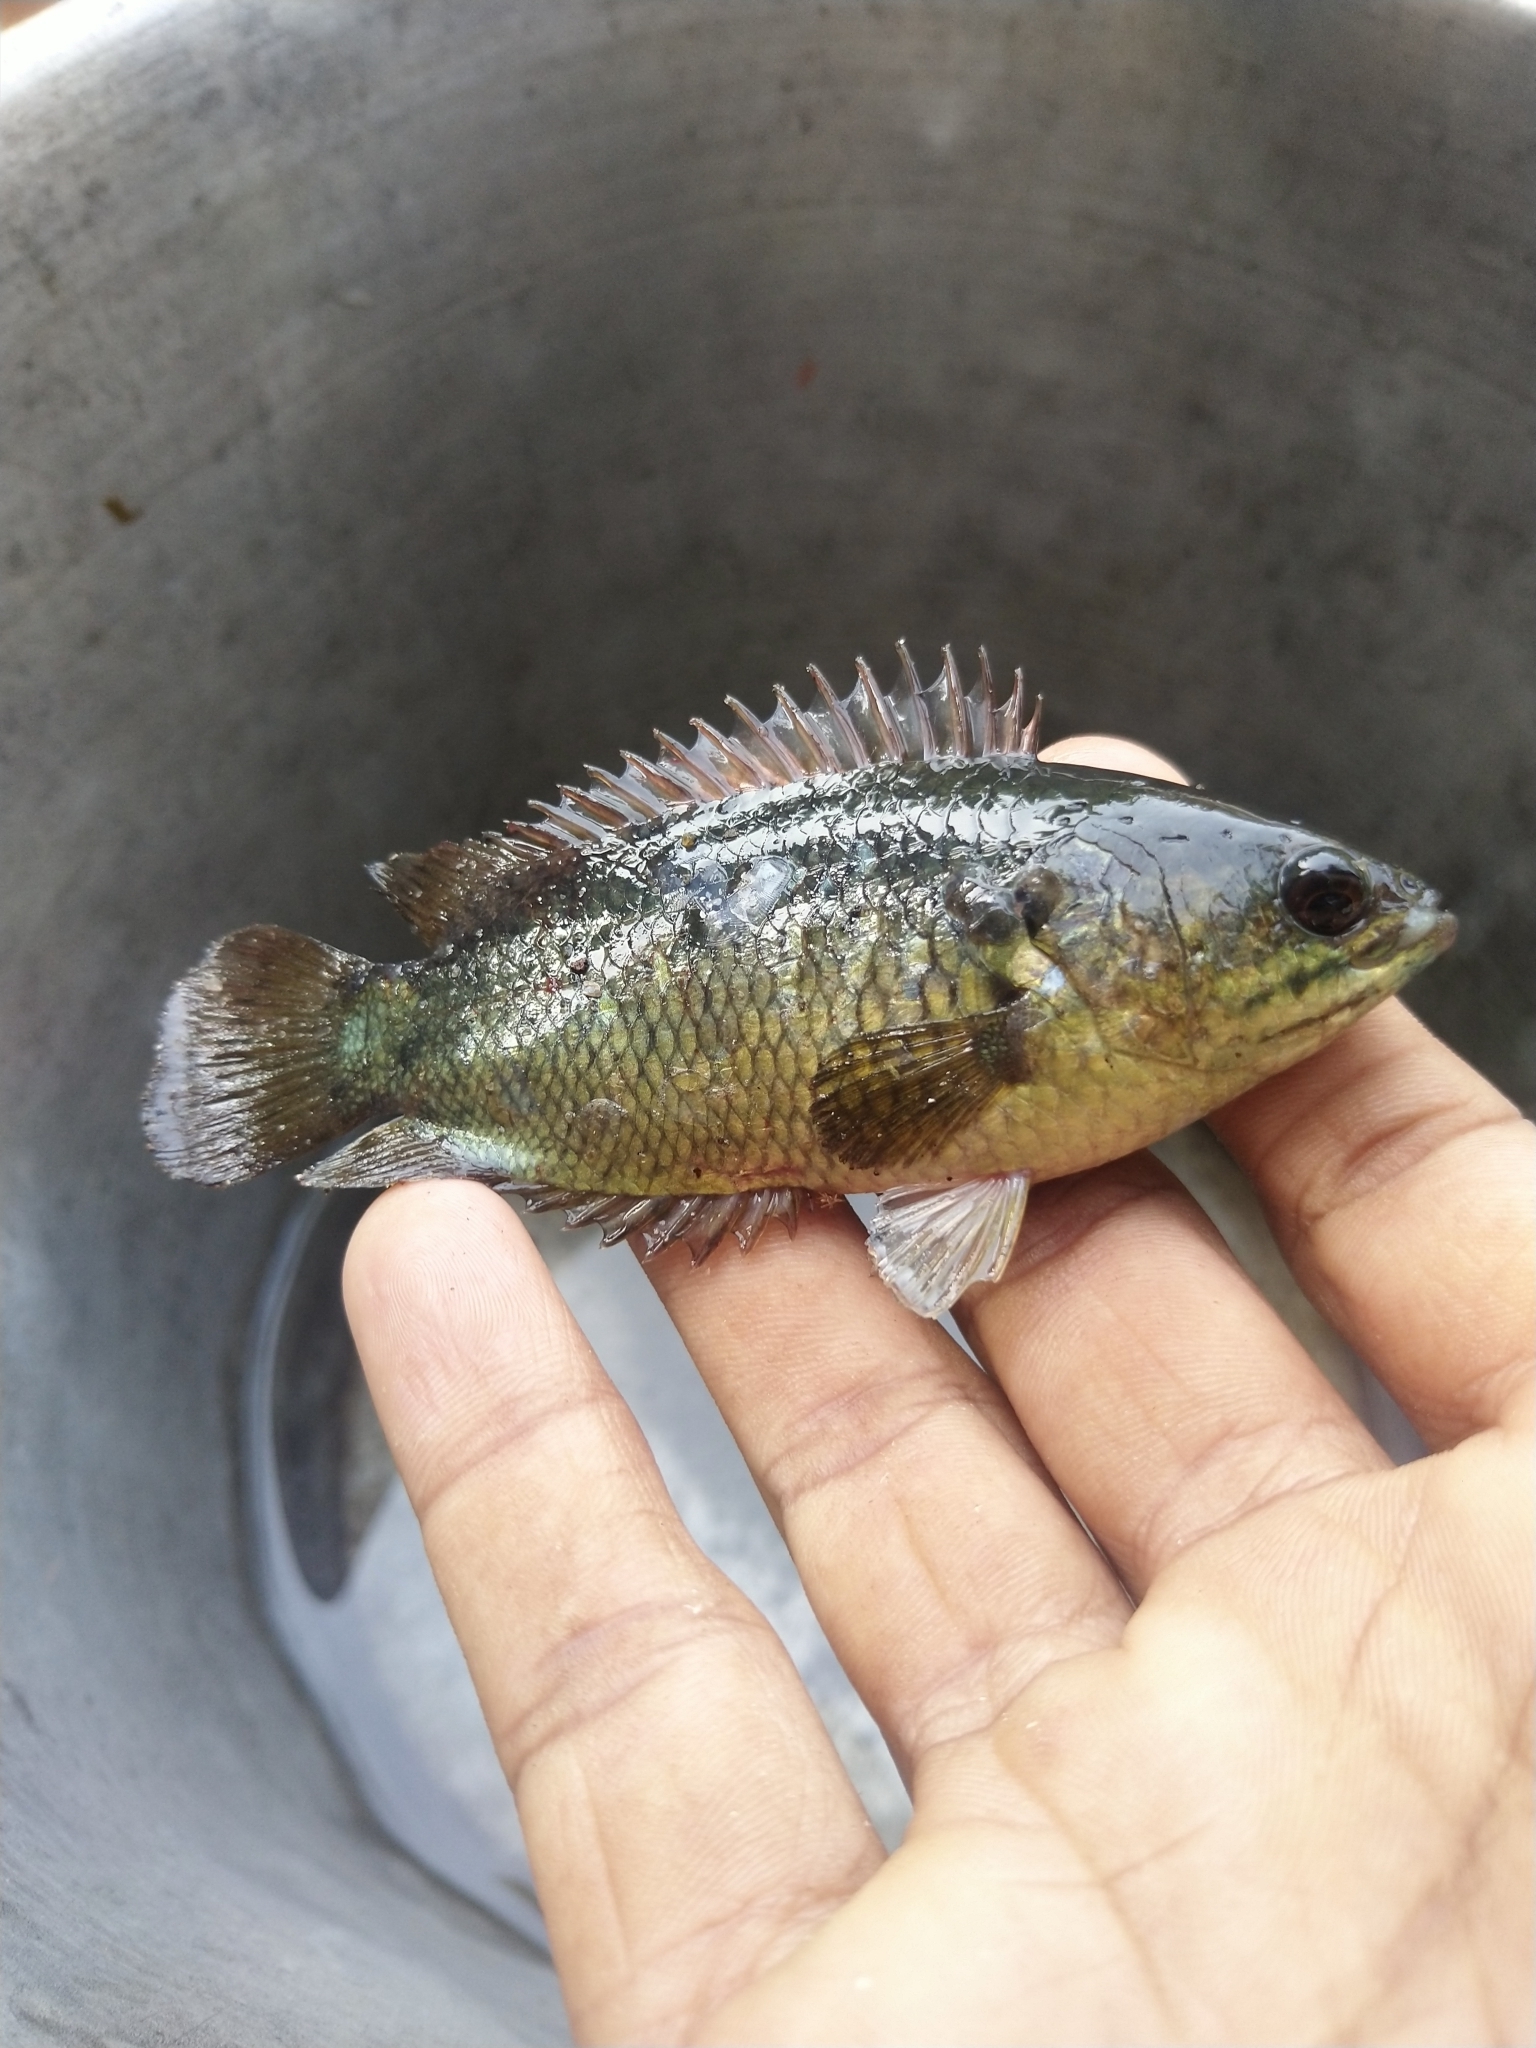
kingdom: Animalia
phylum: Chordata
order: Perciformes
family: Anabantidae
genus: Anabas
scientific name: Anabas testudineus
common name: Climbing perch
